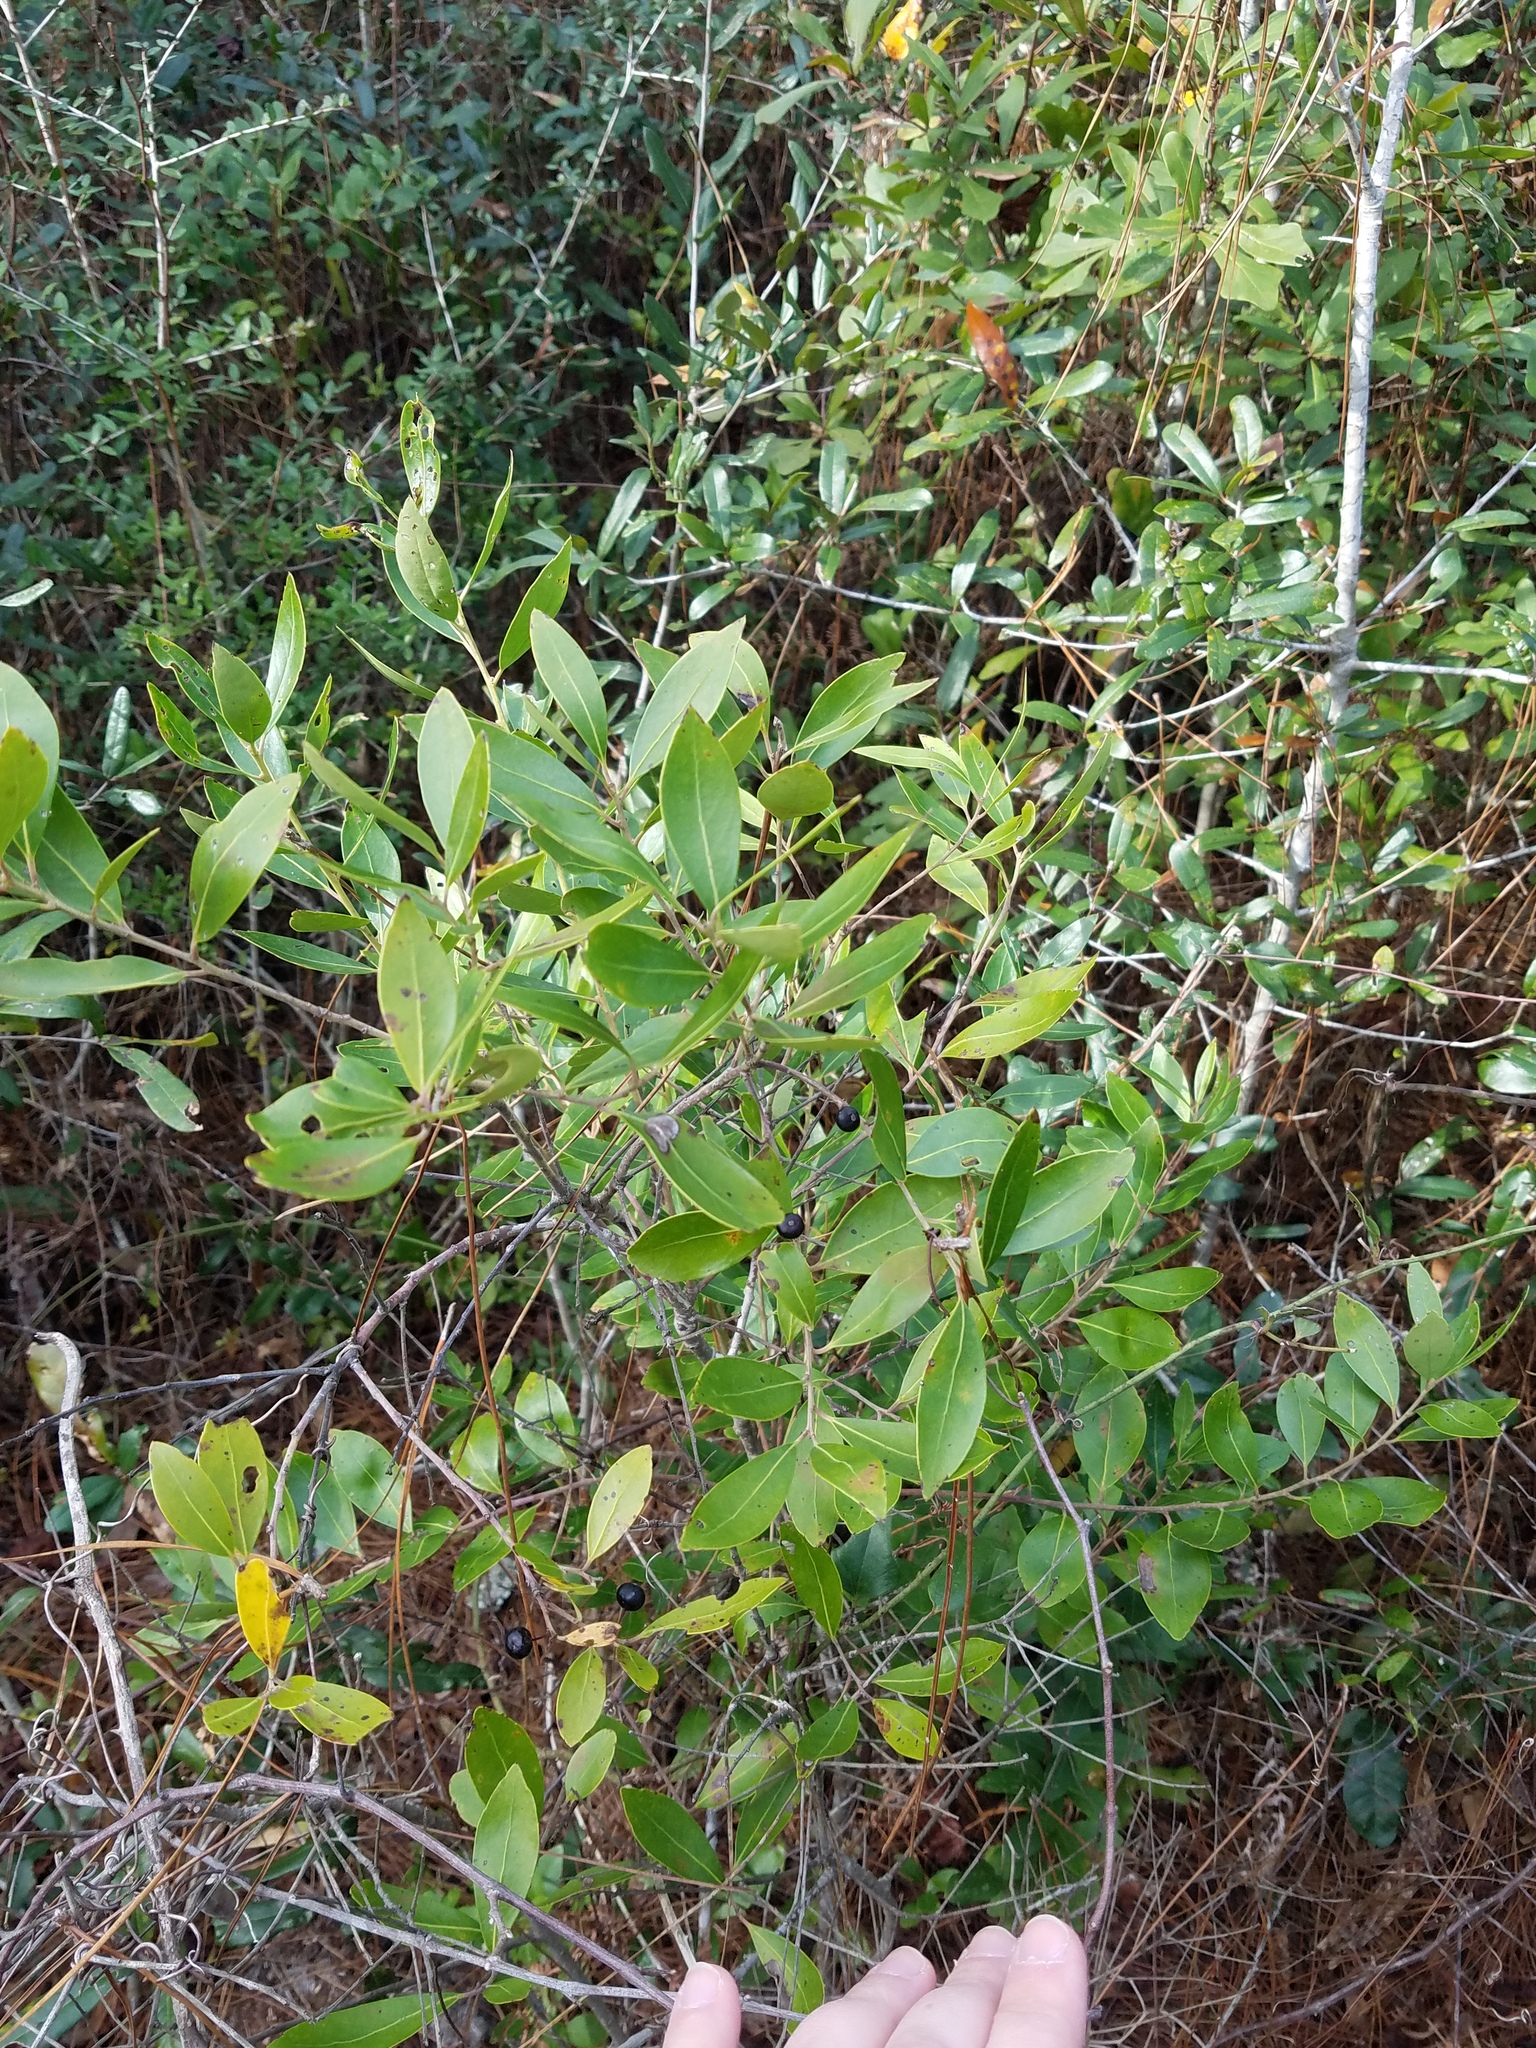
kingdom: Plantae
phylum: Tracheophyta
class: Magnoliopsida
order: Aquifoliales
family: Aquifoliaceae
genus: Ilex
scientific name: Ilex glabra
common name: Bitter gallberry
